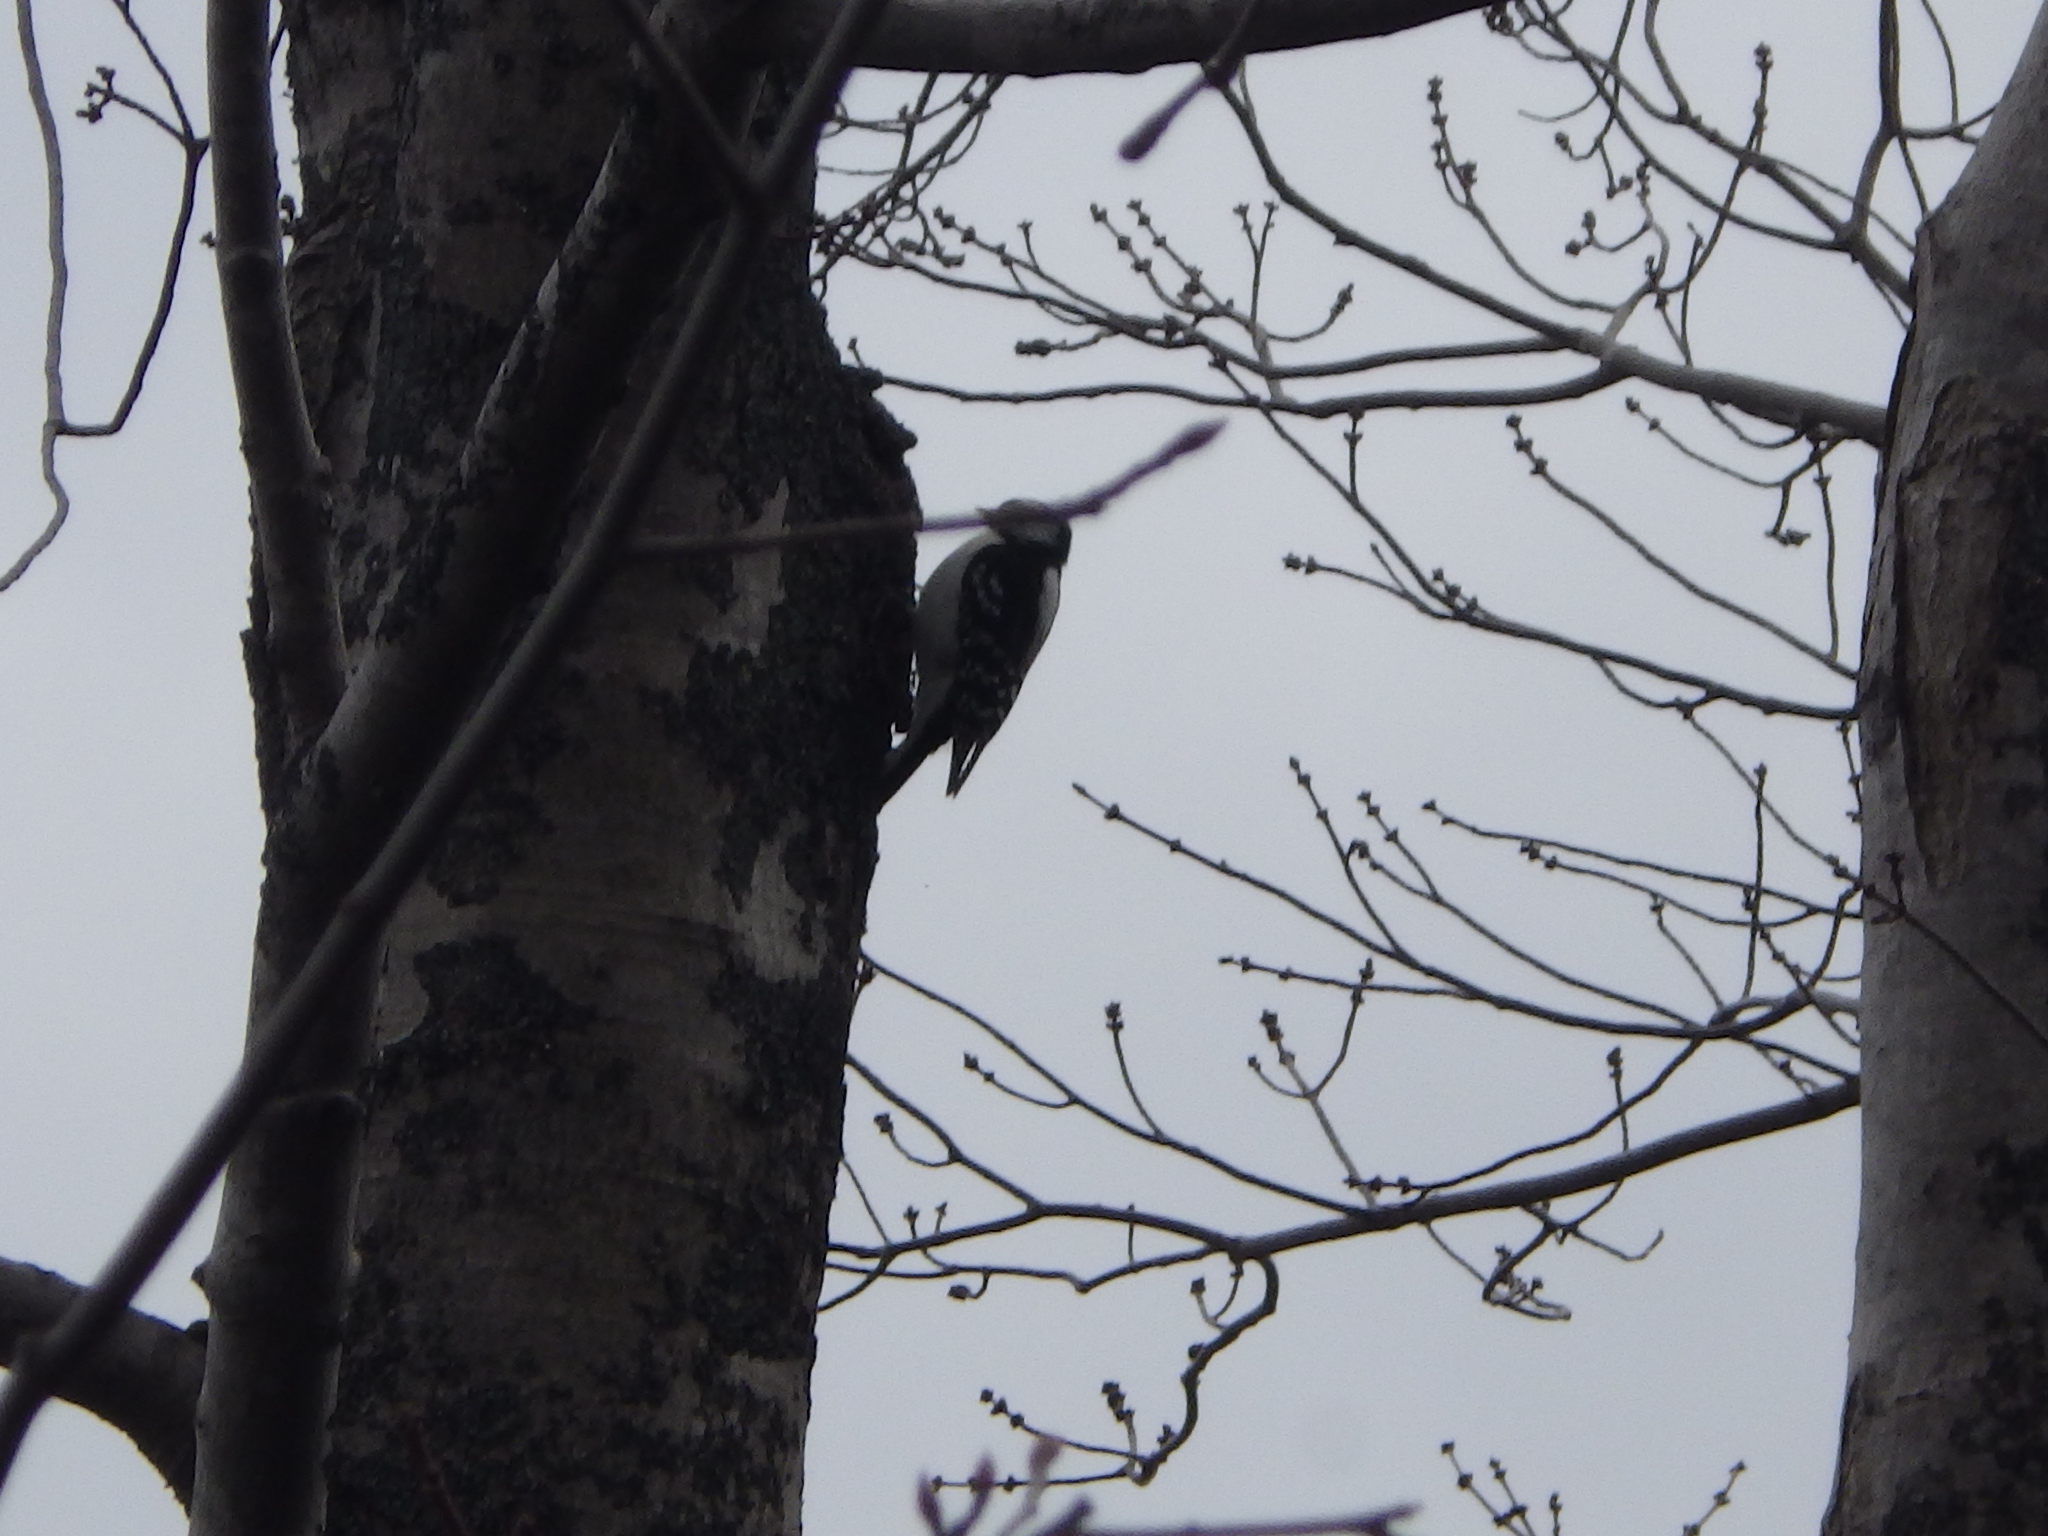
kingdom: Animalia
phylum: Chordata
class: Aves
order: Piciformes
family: Picidae
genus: Dryobates
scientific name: Dryobates pubescens
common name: Downy woodpecker
